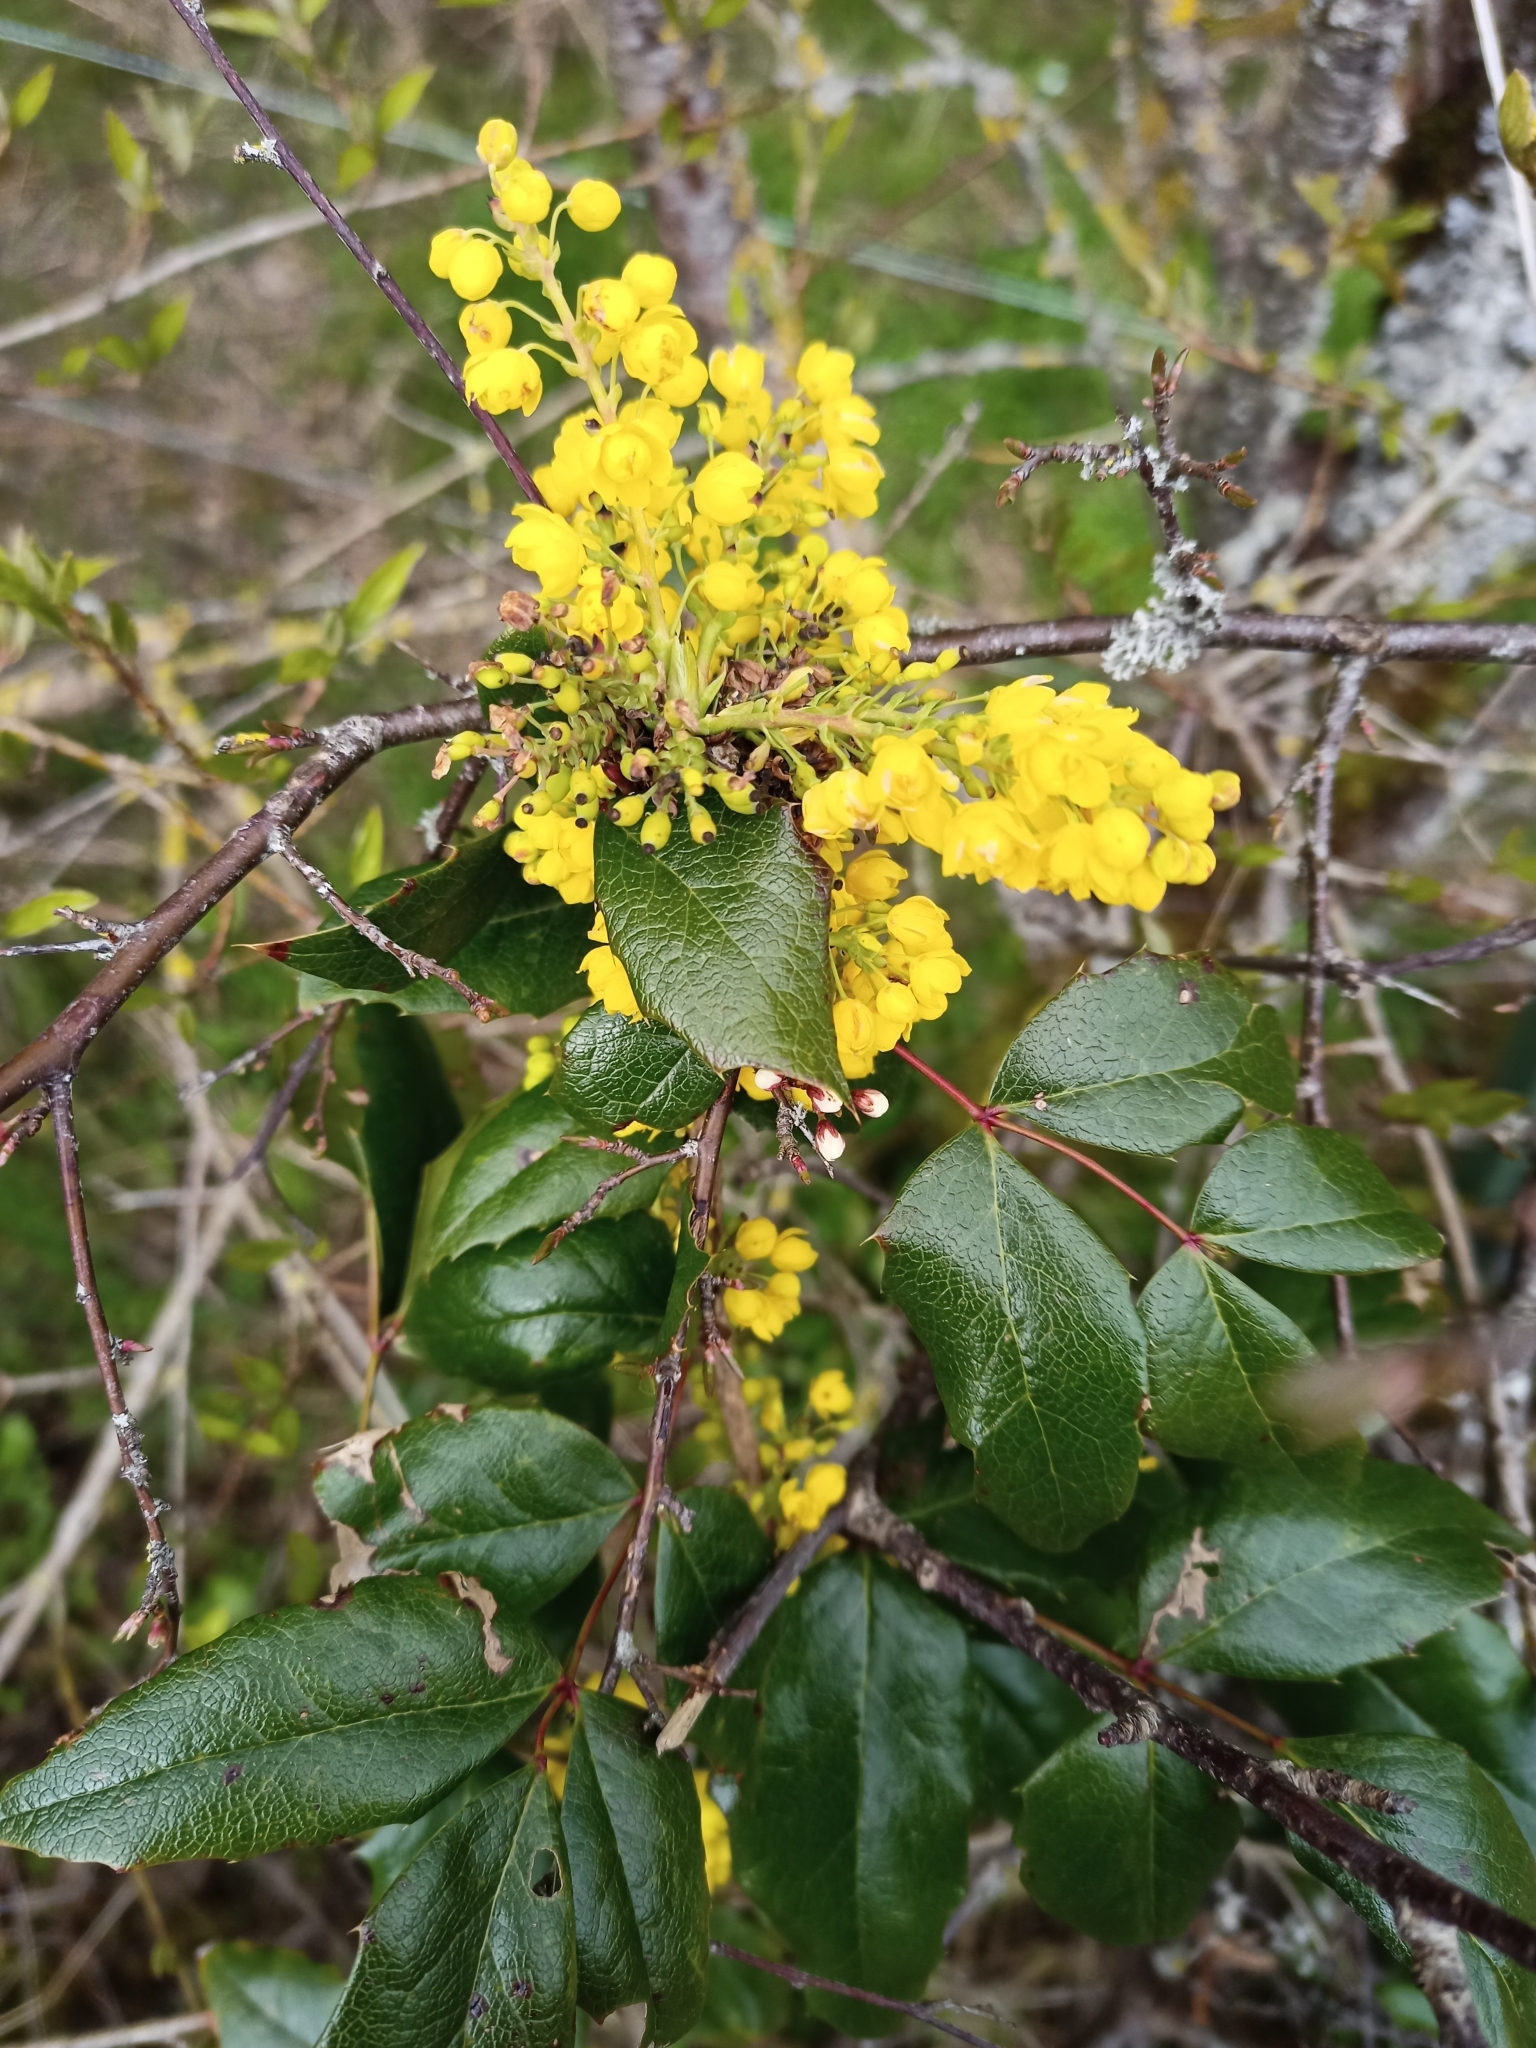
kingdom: Plantae
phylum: Tracheophyta
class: Magnoliopsida
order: Ranunculales
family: Berberidaceae
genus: Mahonia
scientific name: Mahonia aquifolium
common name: Oregon-grape
